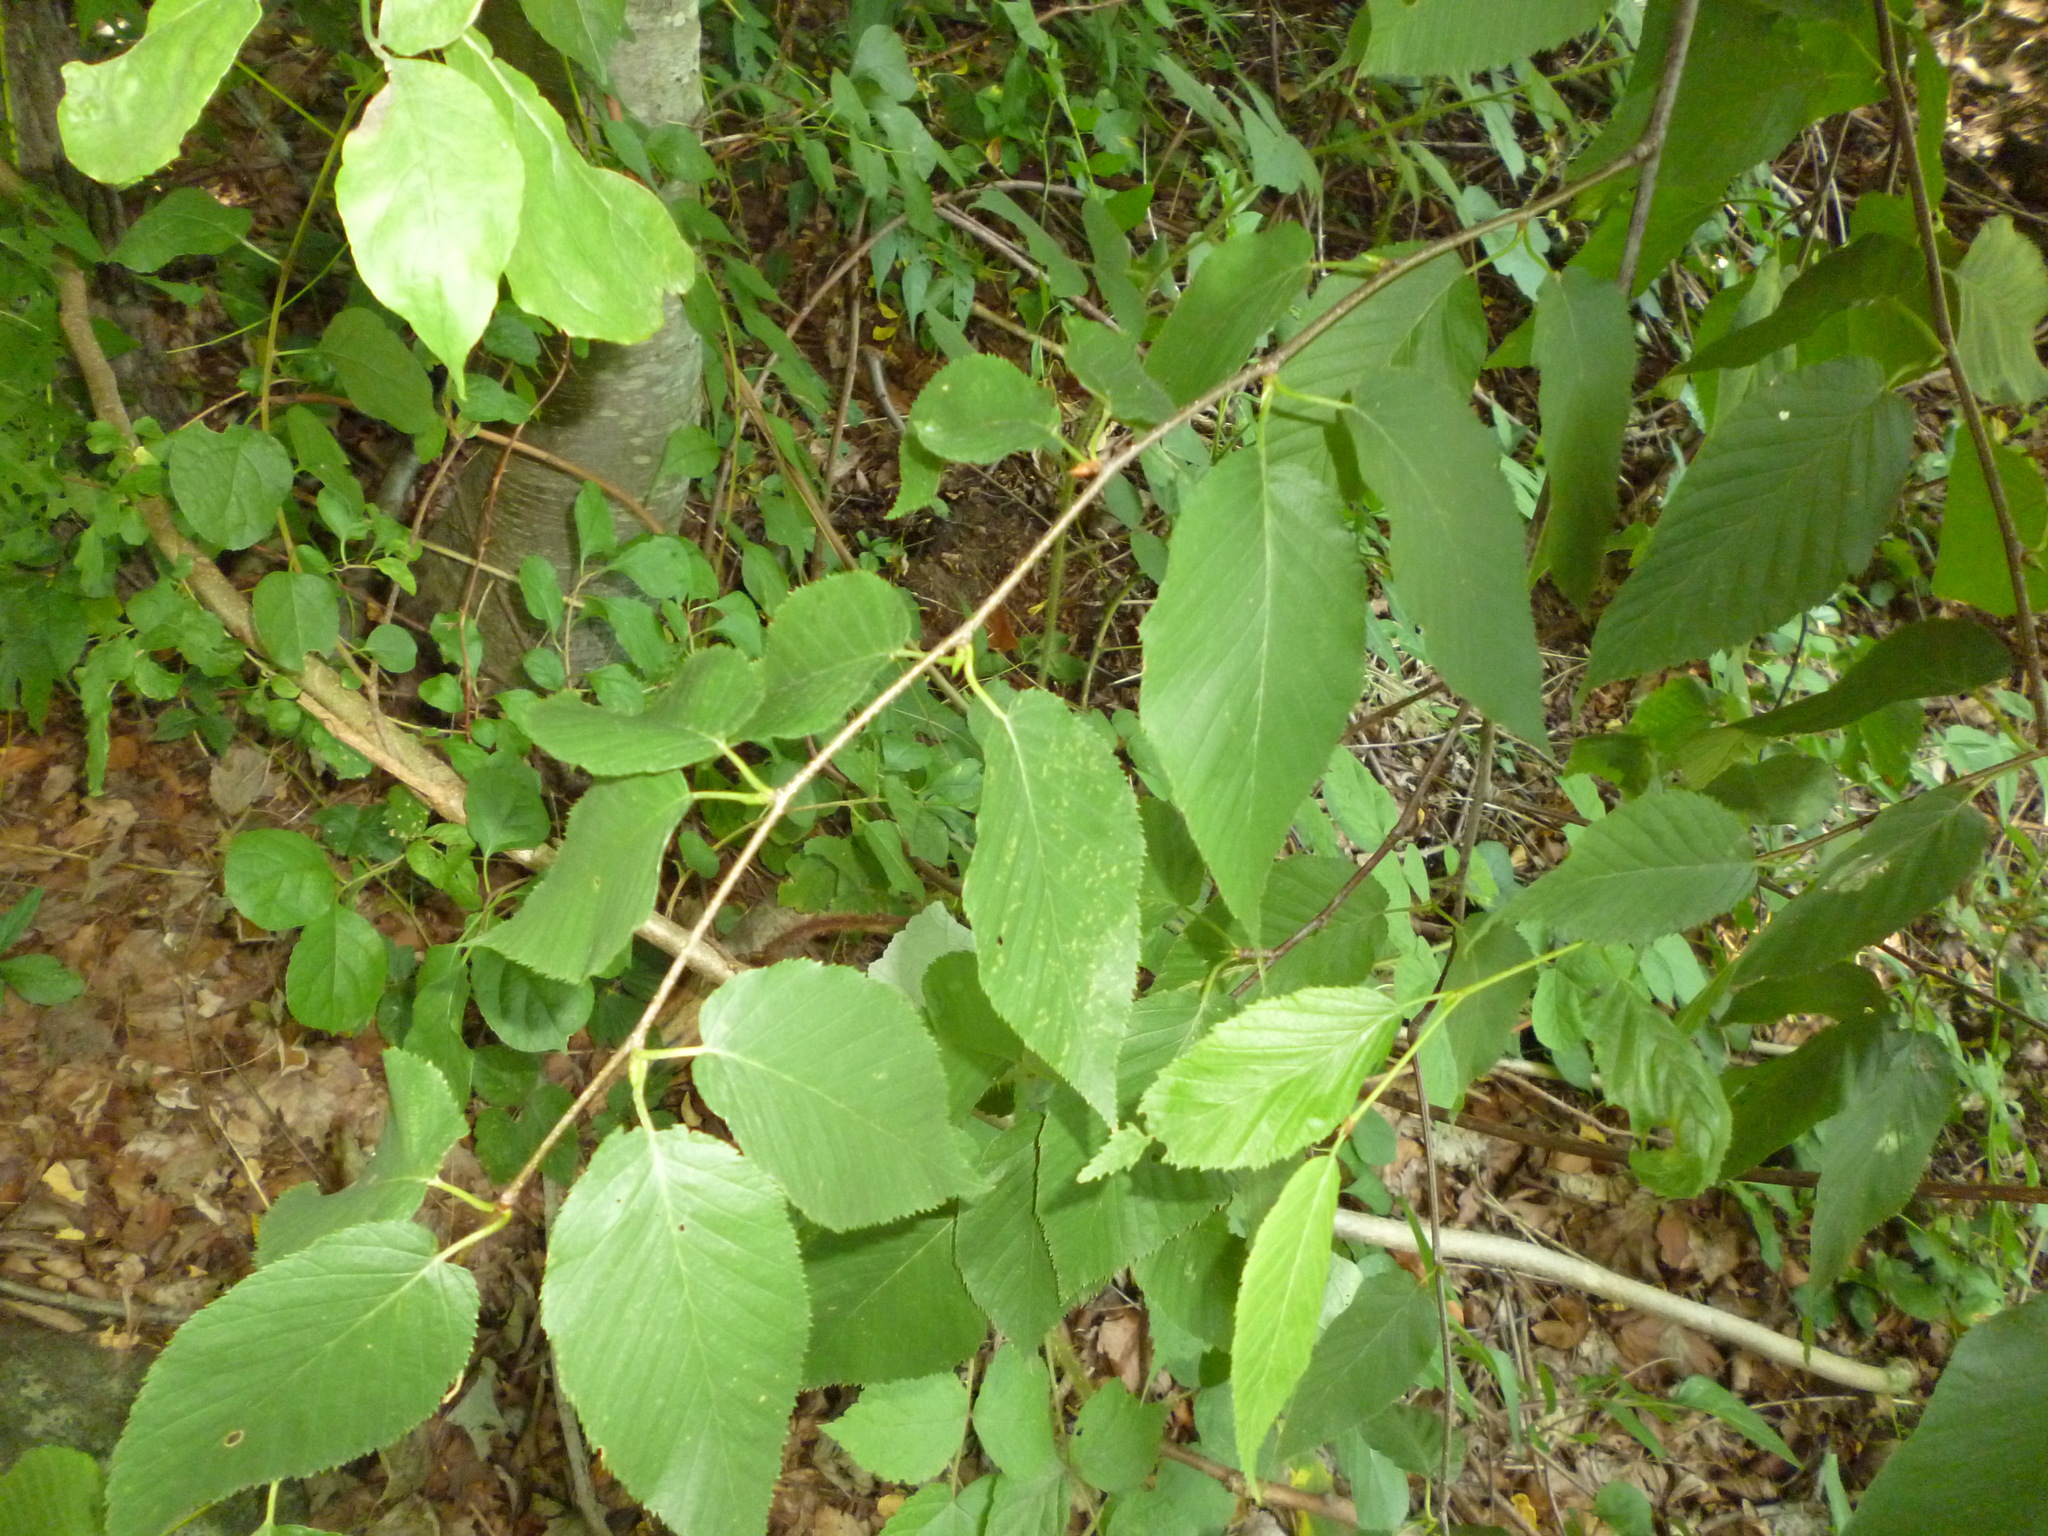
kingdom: Plantae
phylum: Tracheophyta
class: Magnoliopsida
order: Fagales
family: Betulaceae
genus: Betula
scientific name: Betula lenta
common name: Black birch
